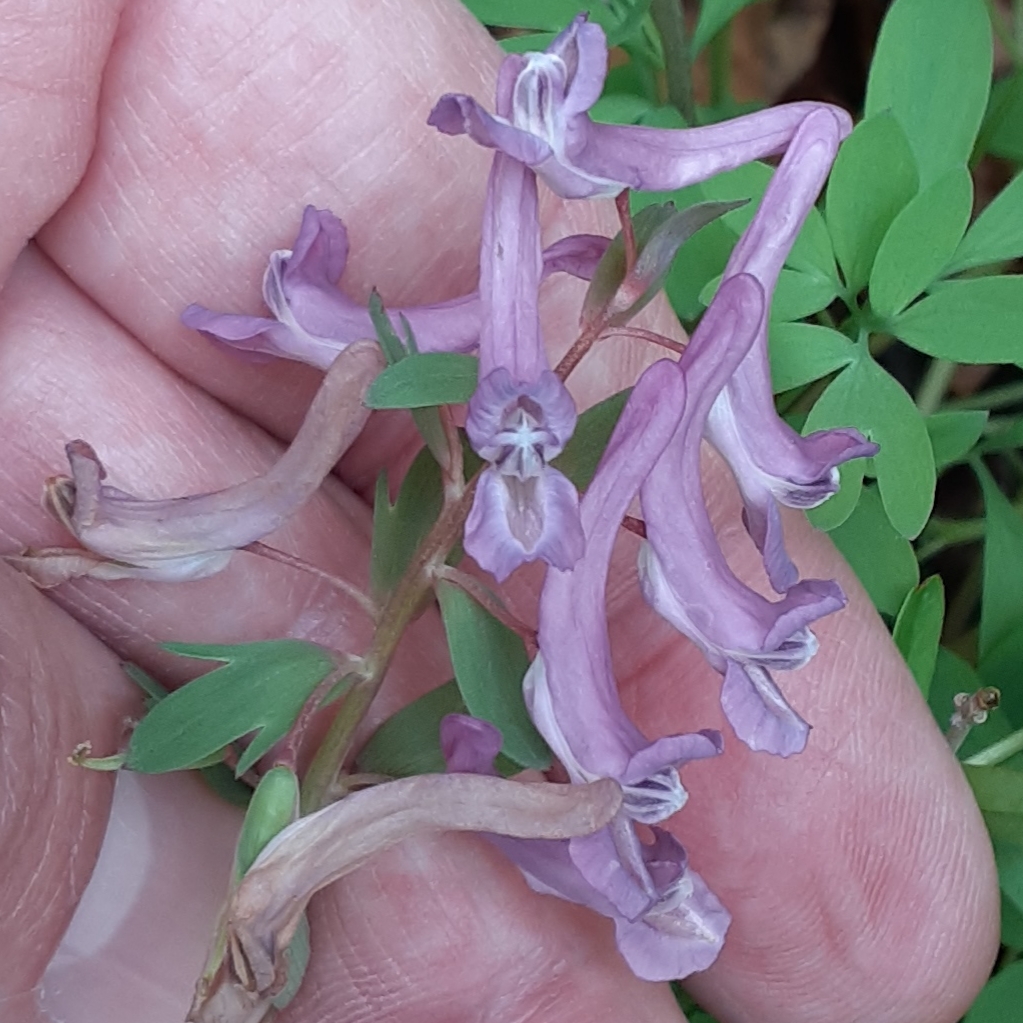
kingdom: Plantae
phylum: Tracheophyta
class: Magnoliopsida
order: Ranunculales
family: Papaveraceae
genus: Corydalis
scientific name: Corydalis solida
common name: Bird-in-a-bush
